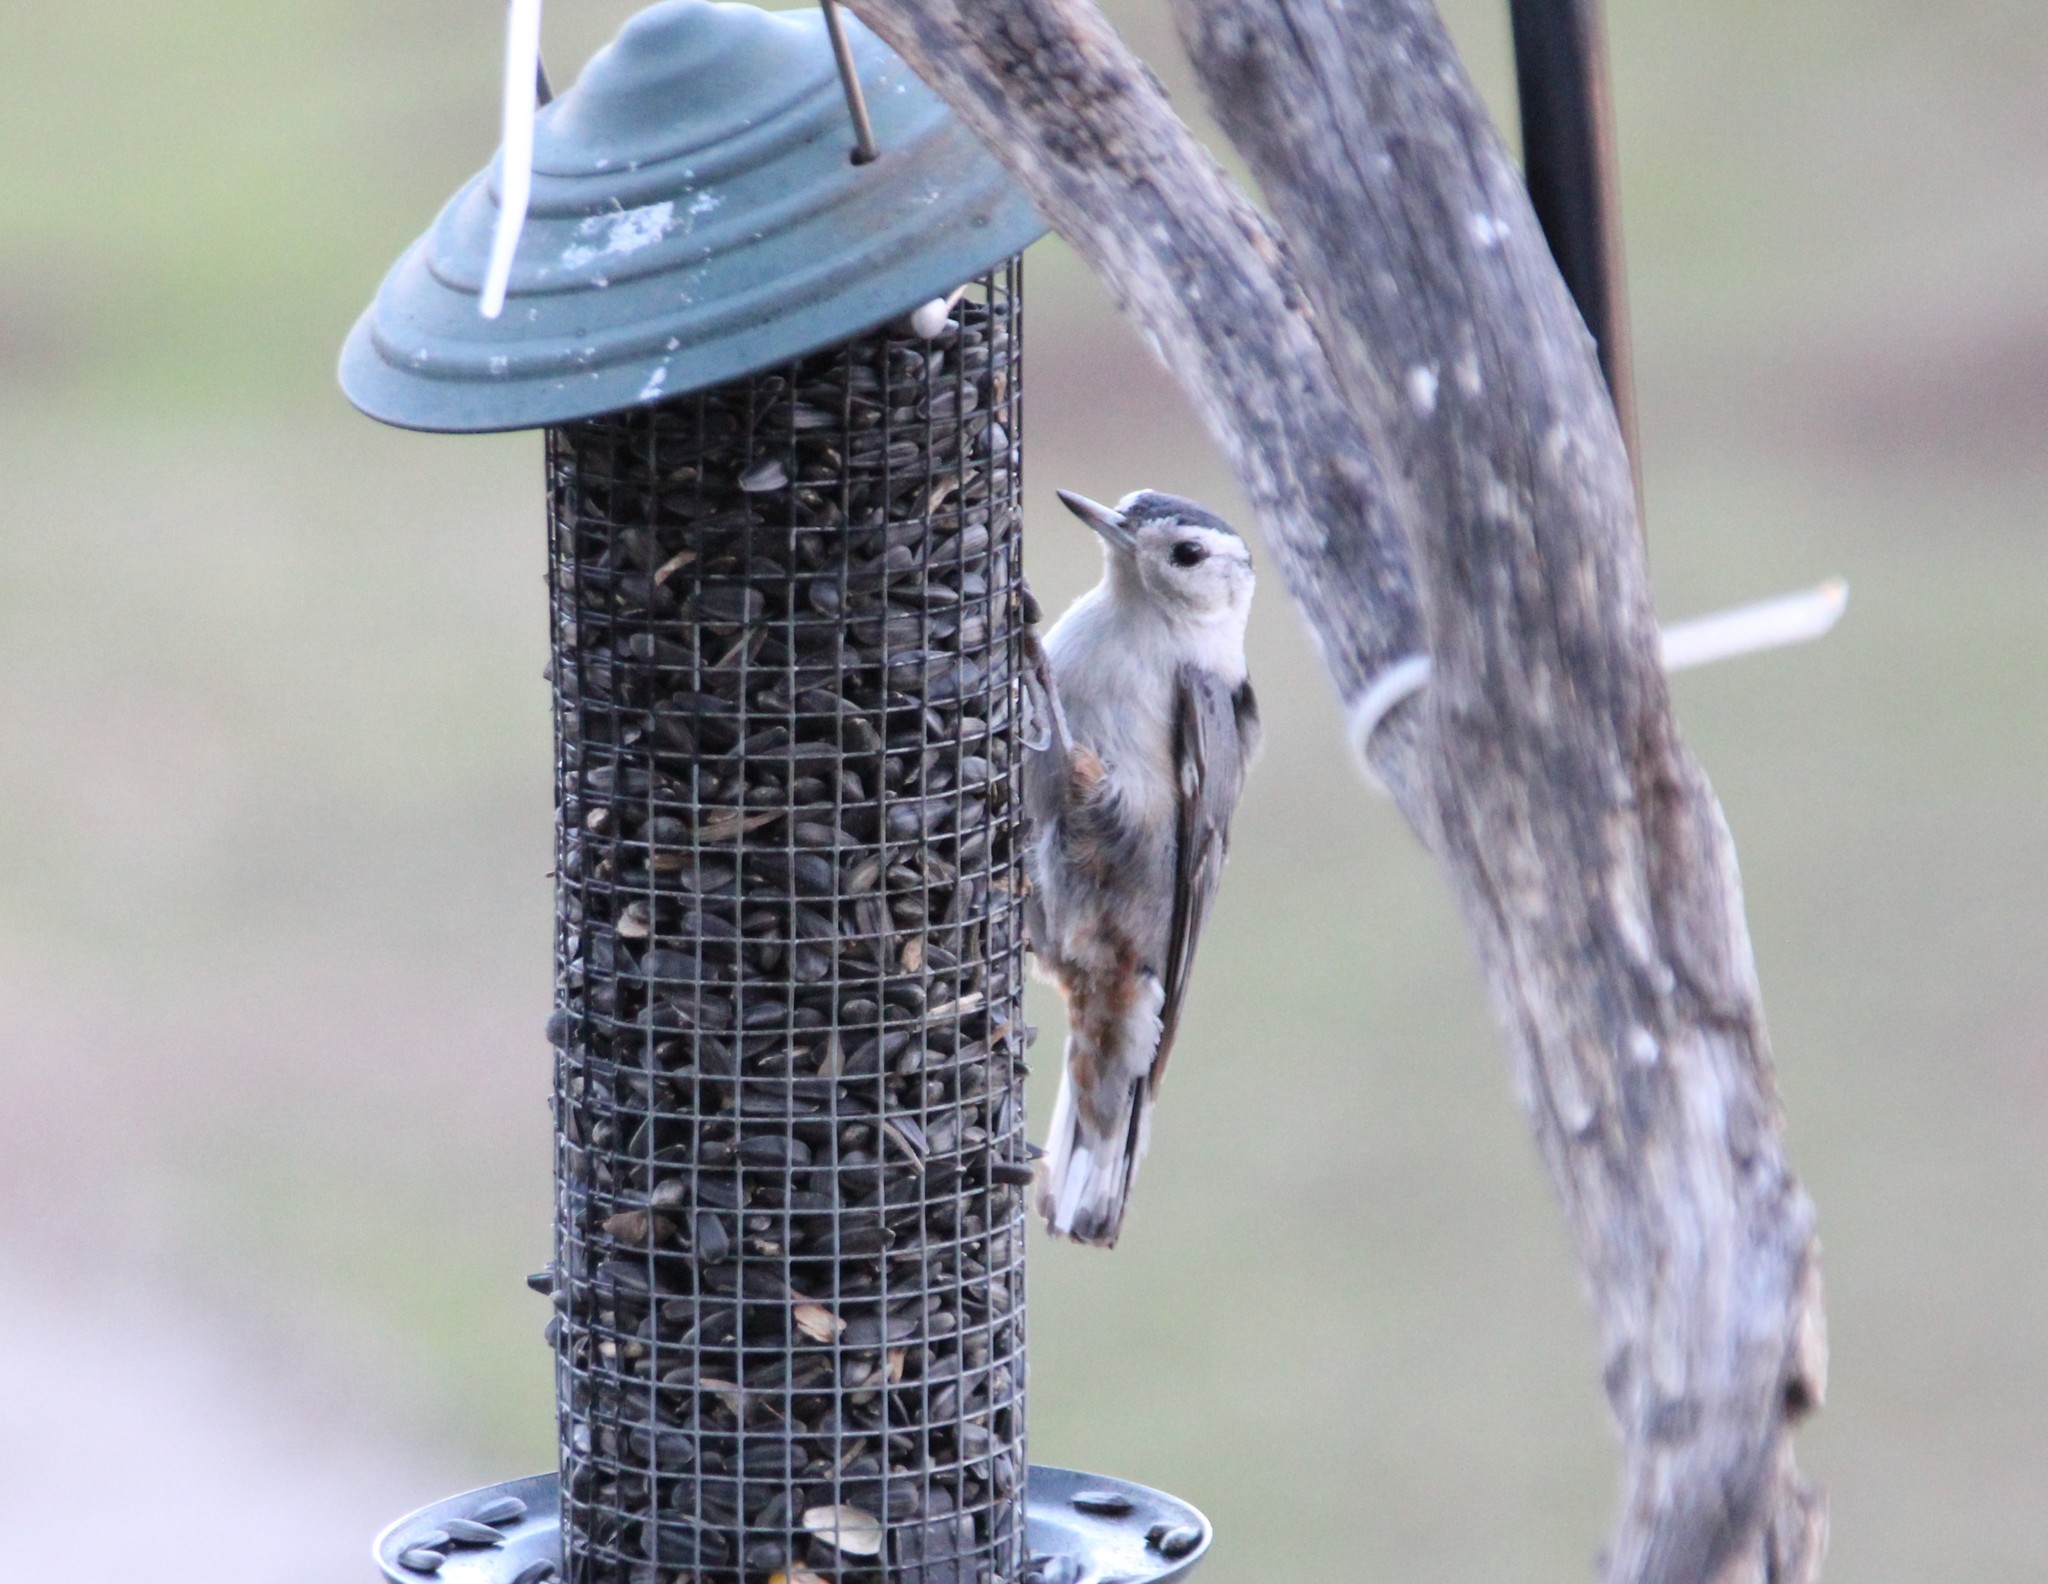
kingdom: Animalia
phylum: Chordata
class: Aves
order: Passeriformes
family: Sittidae
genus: Sitta
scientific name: Sitta carolinensis
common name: White-breasted nuthatch
